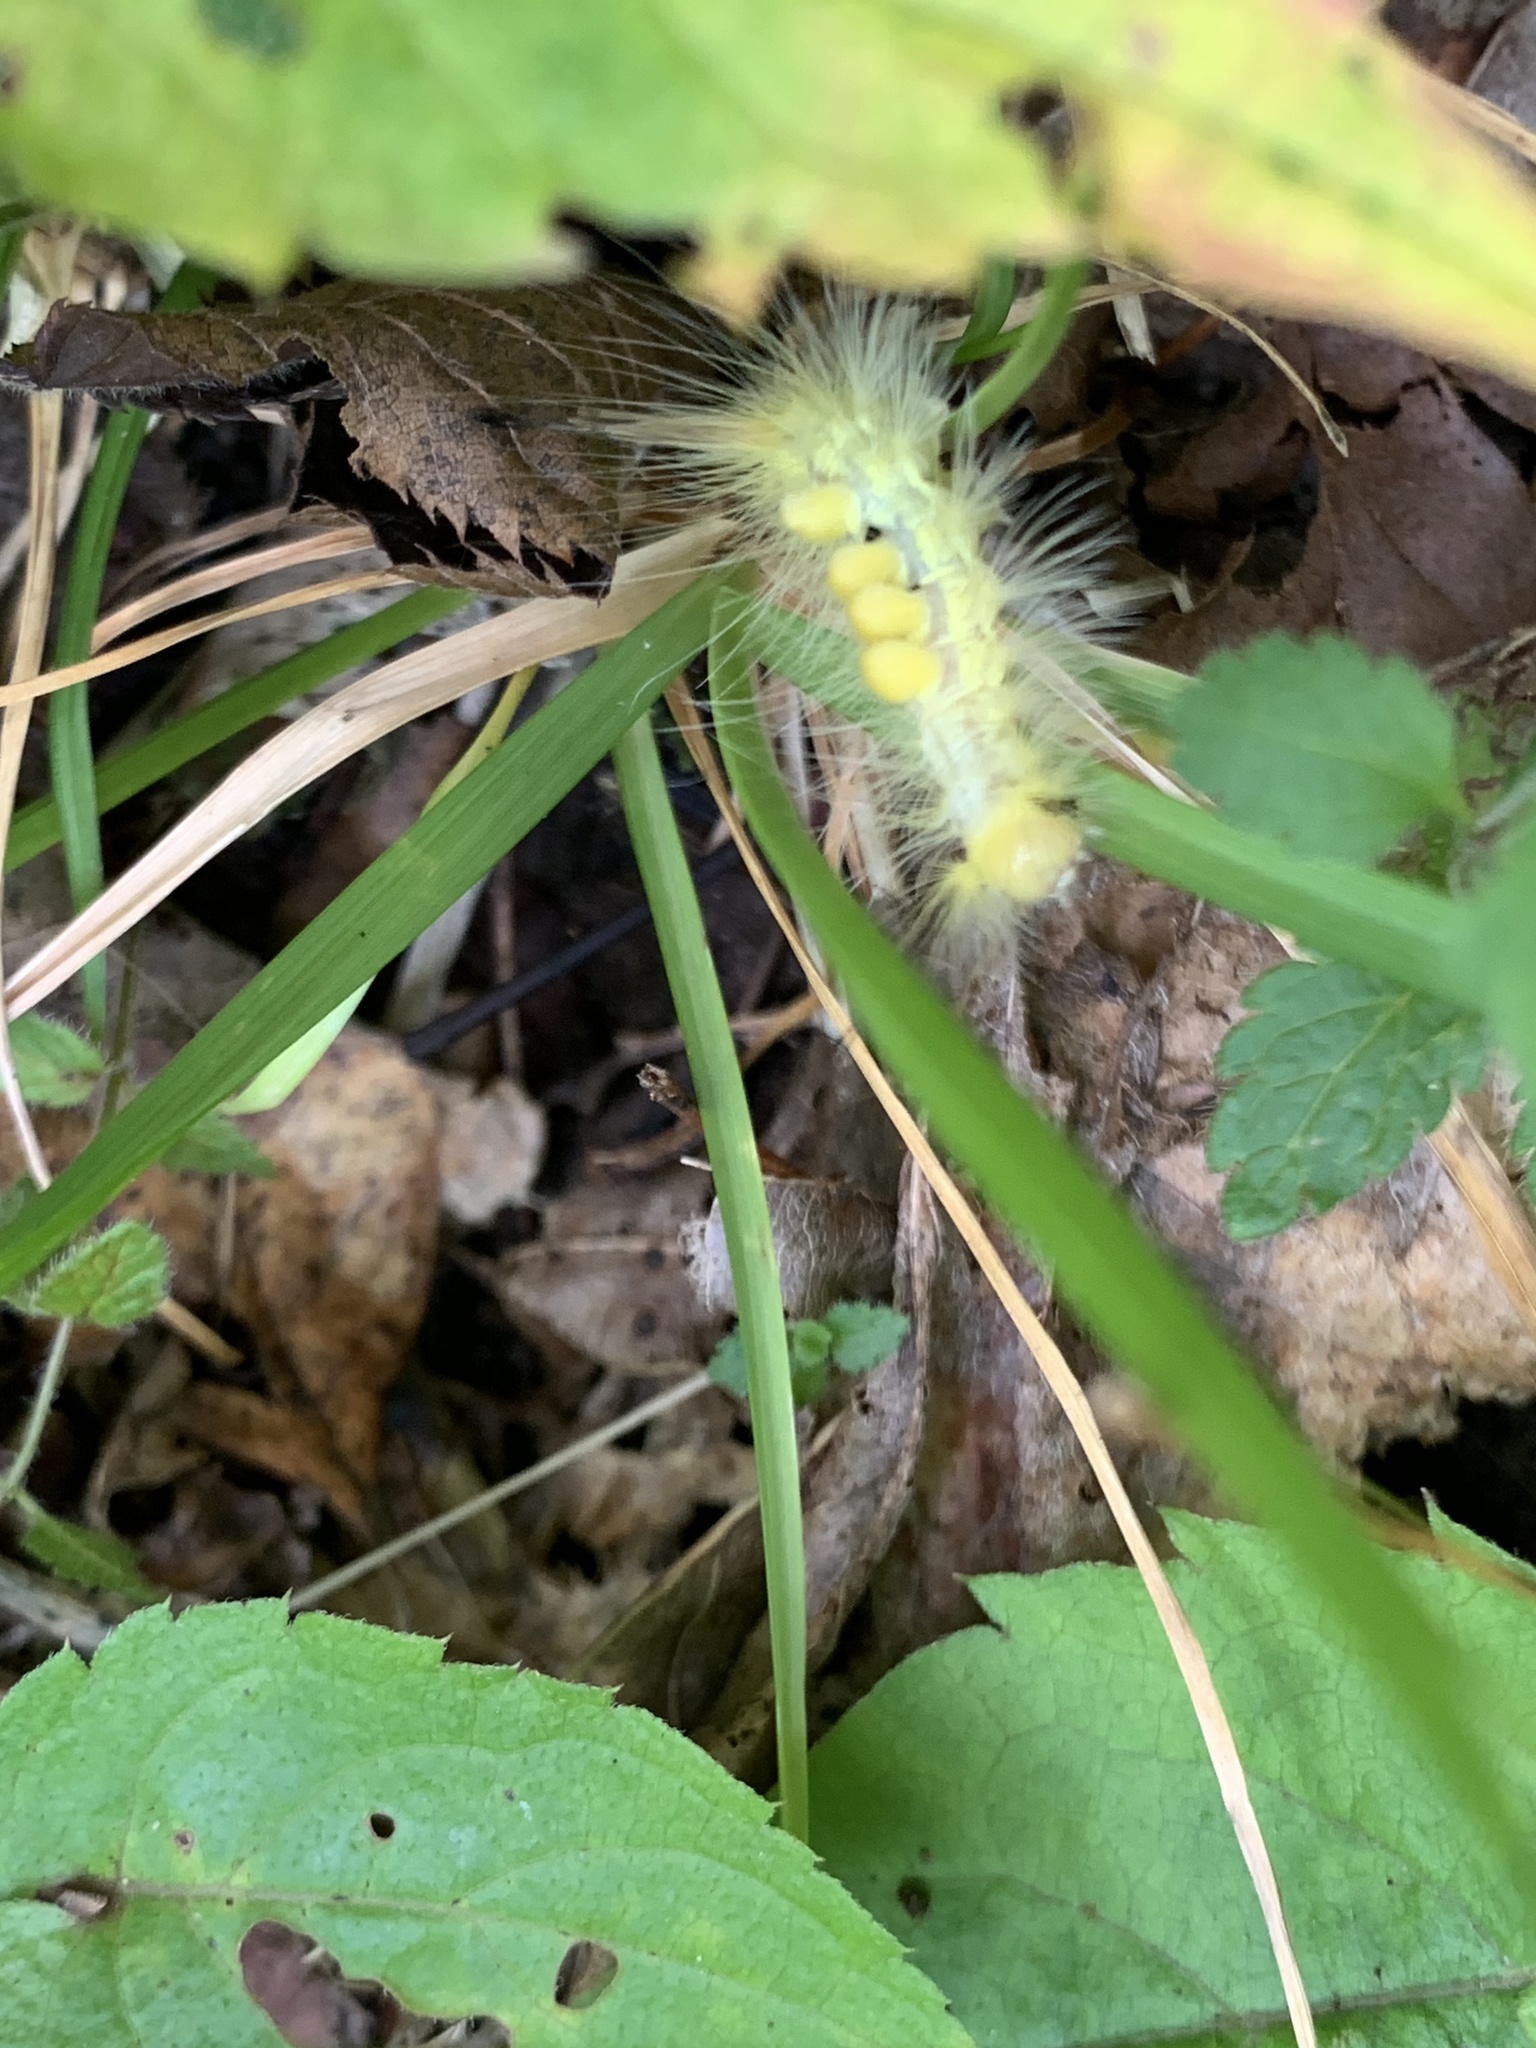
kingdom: Animalia
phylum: Arthropoda
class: Insecta
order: Lepidoptera
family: Erebidae
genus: Orgyia
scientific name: Orgyia definita
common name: Definite tussock moth
